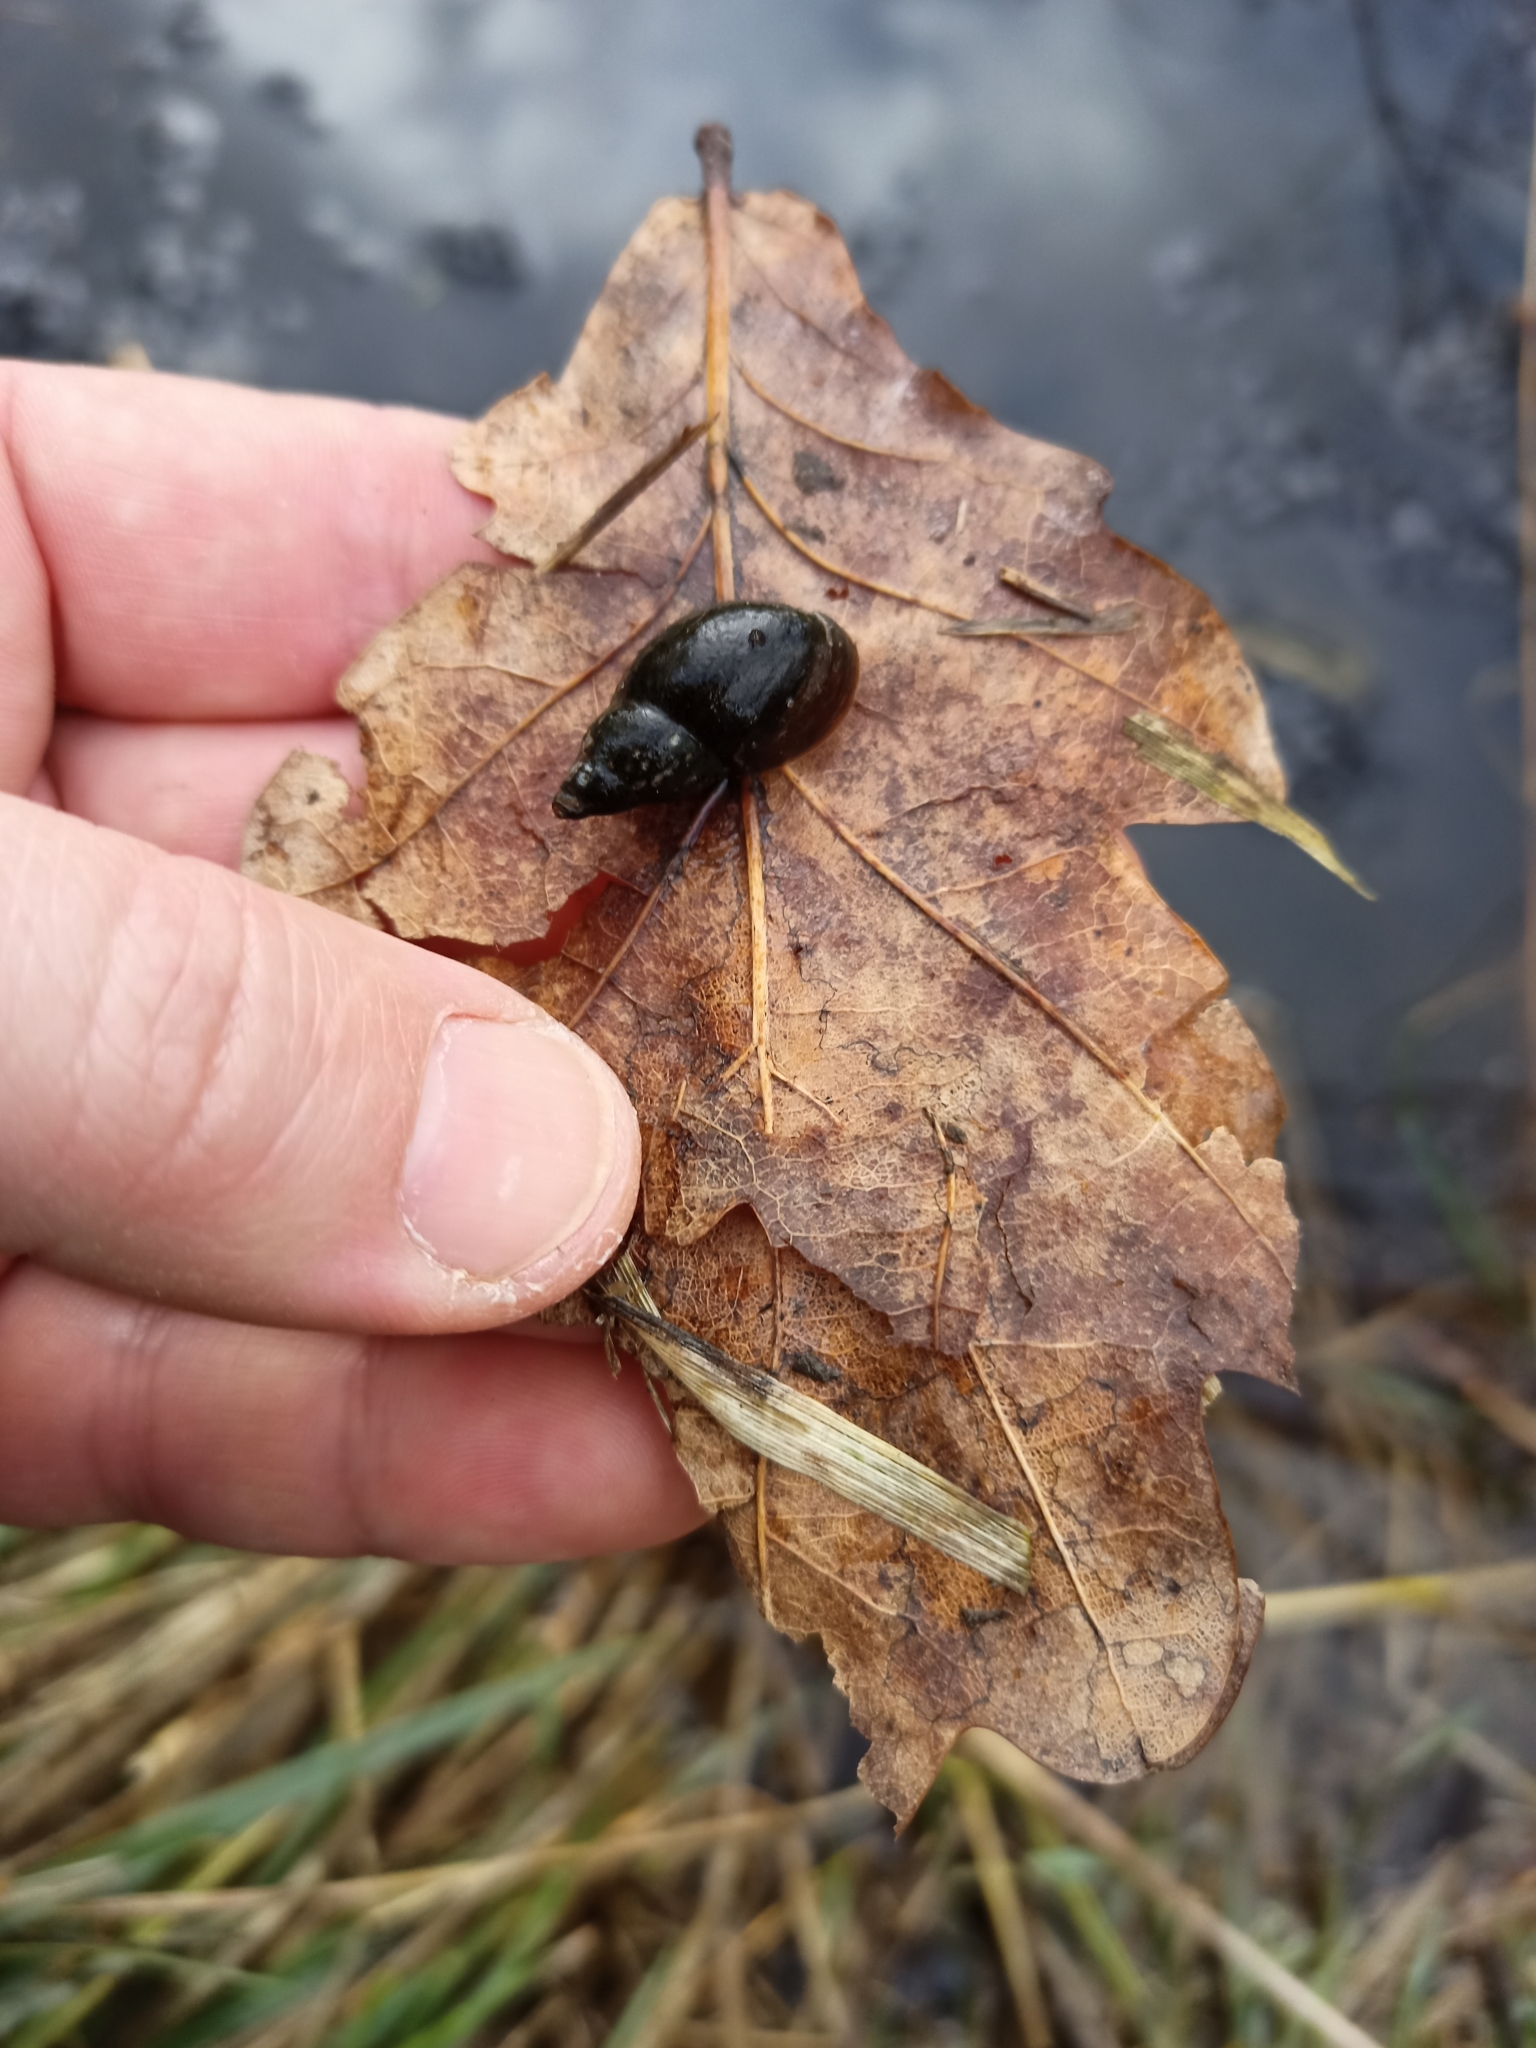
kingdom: Animalia
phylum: Mollusca
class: Gastropoda
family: Lymnaeidae
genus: Lymnaea
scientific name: Lymnaea stagnalis
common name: Great pond snail
